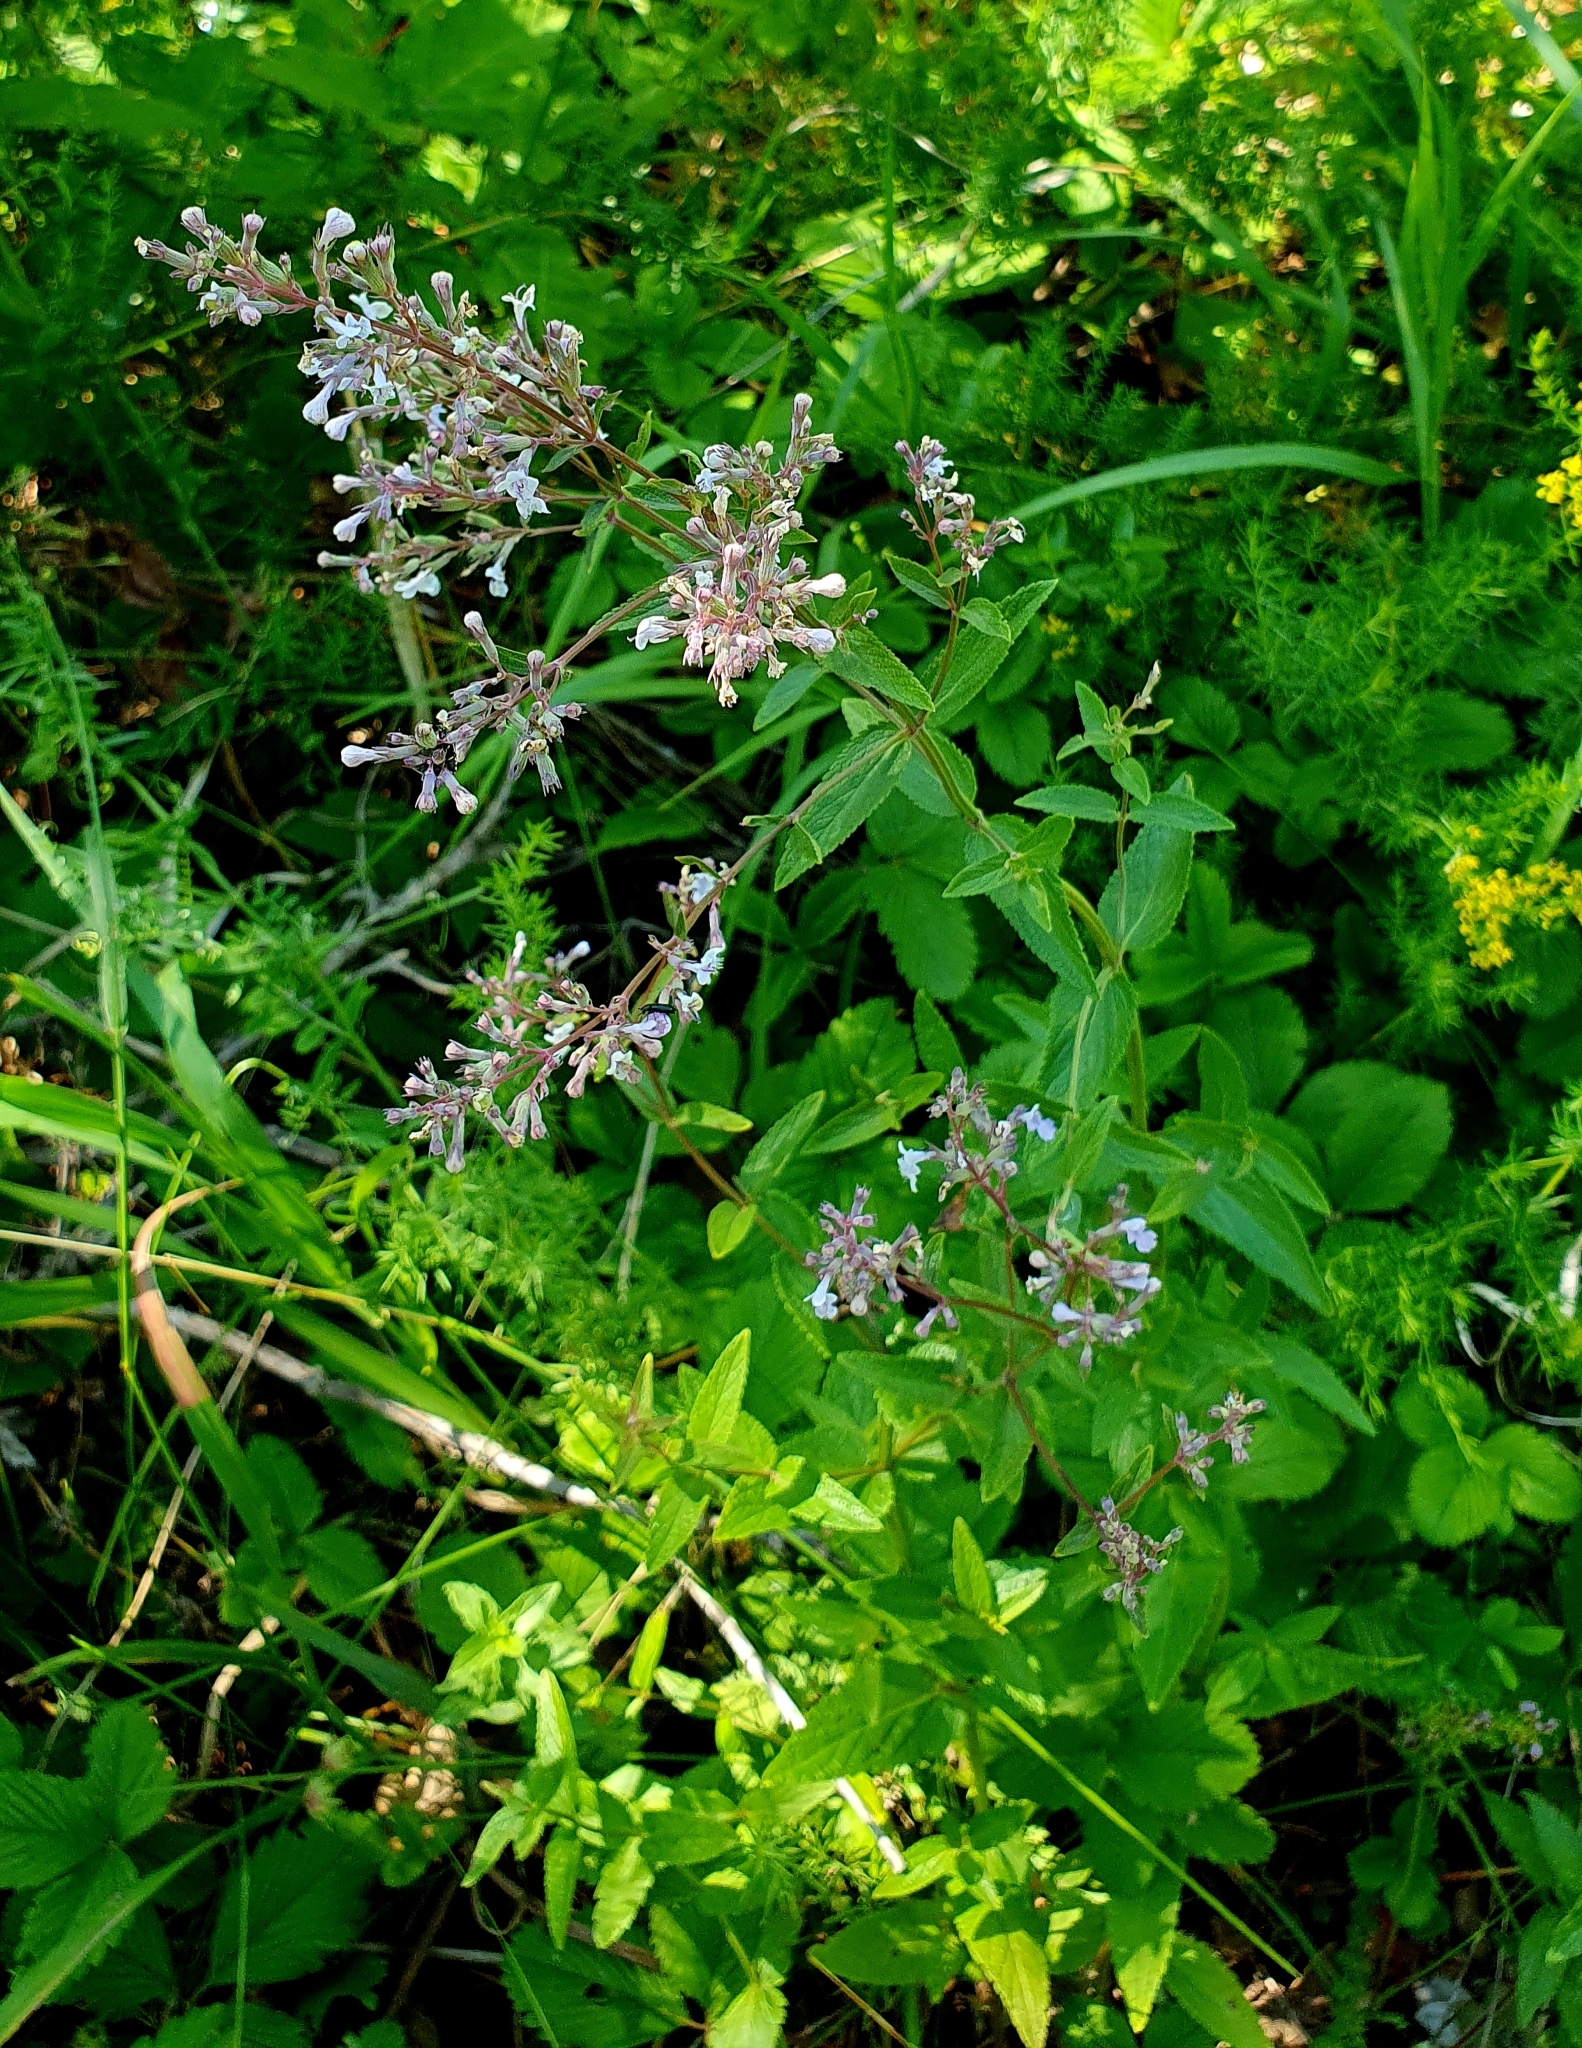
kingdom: Plantae
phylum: Tracheophyta
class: Magnoliopsida
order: Lamiales
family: Lamiaceae
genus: Nepeta
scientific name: Nepeta nuda
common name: Hairless catmint
